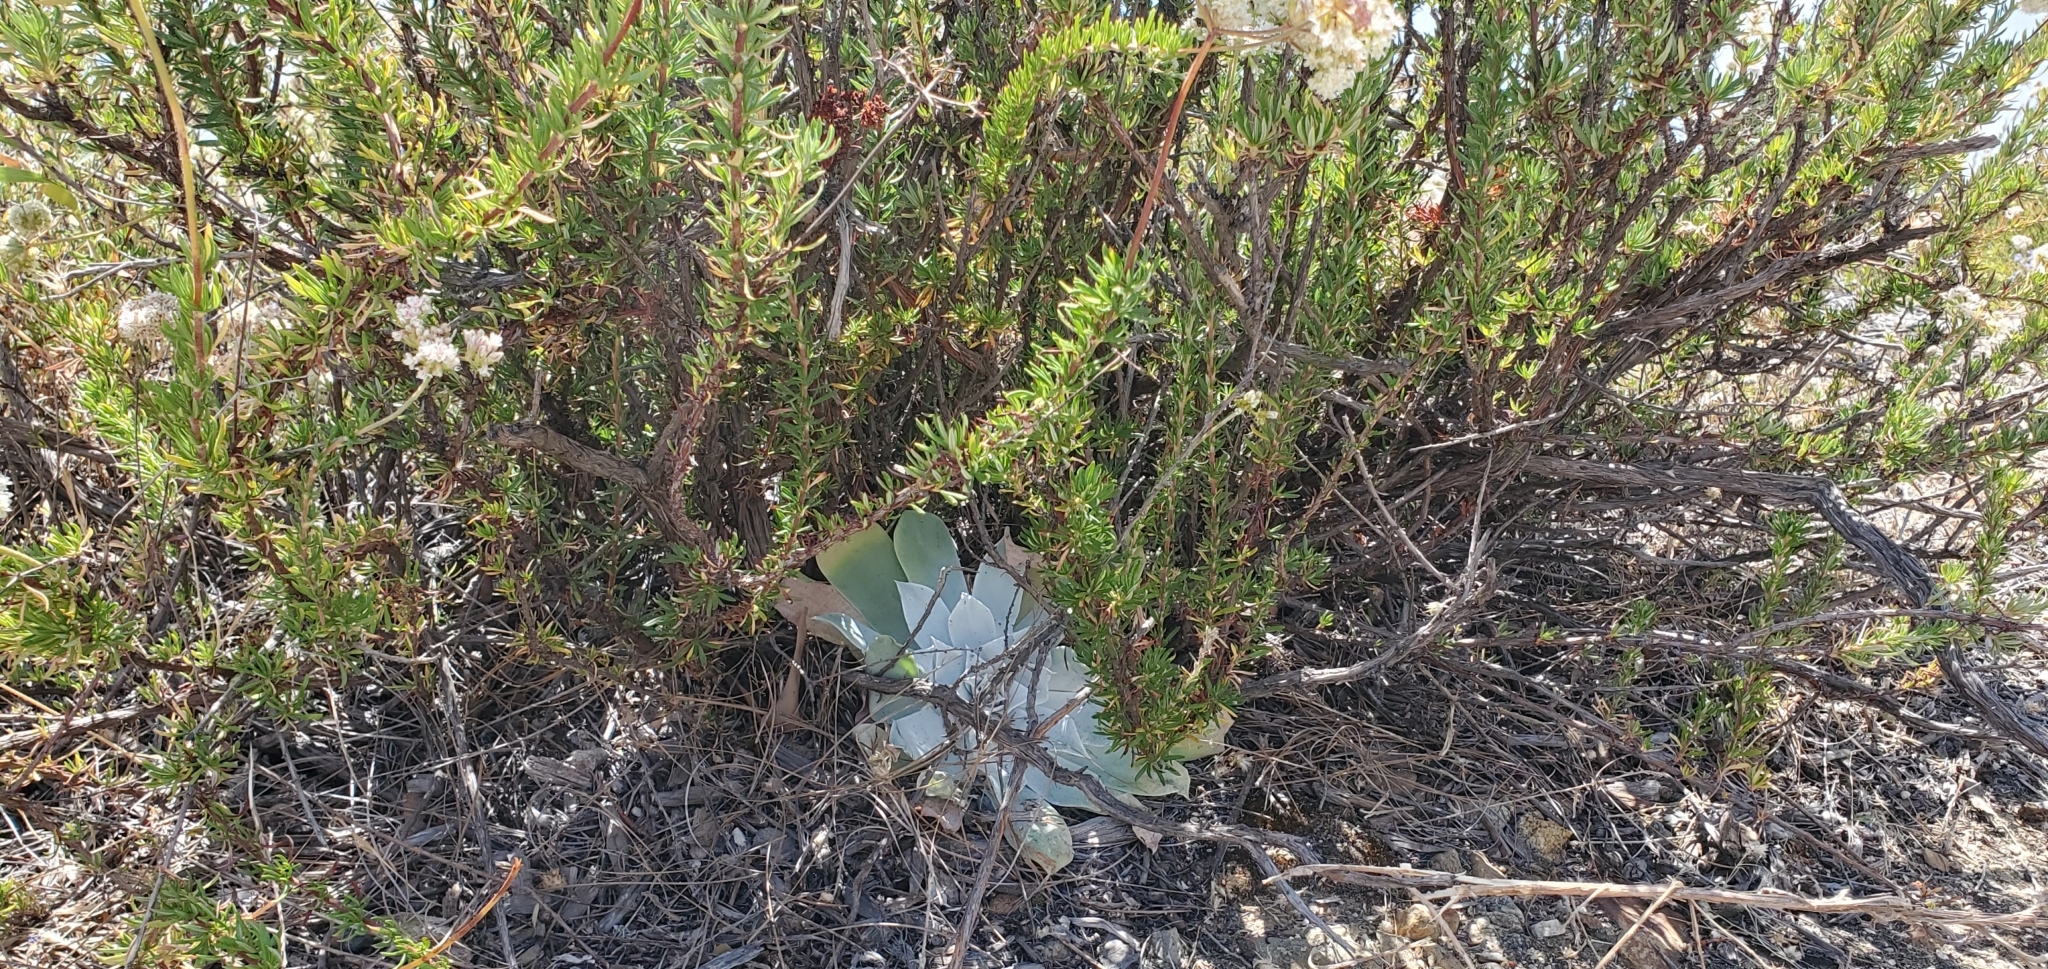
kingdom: Plantae
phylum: Tracheophyta
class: Magnoliopsida
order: Saxifragales
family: Crassulaceae
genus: Dudleya
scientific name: Dudleya pulverulenta
